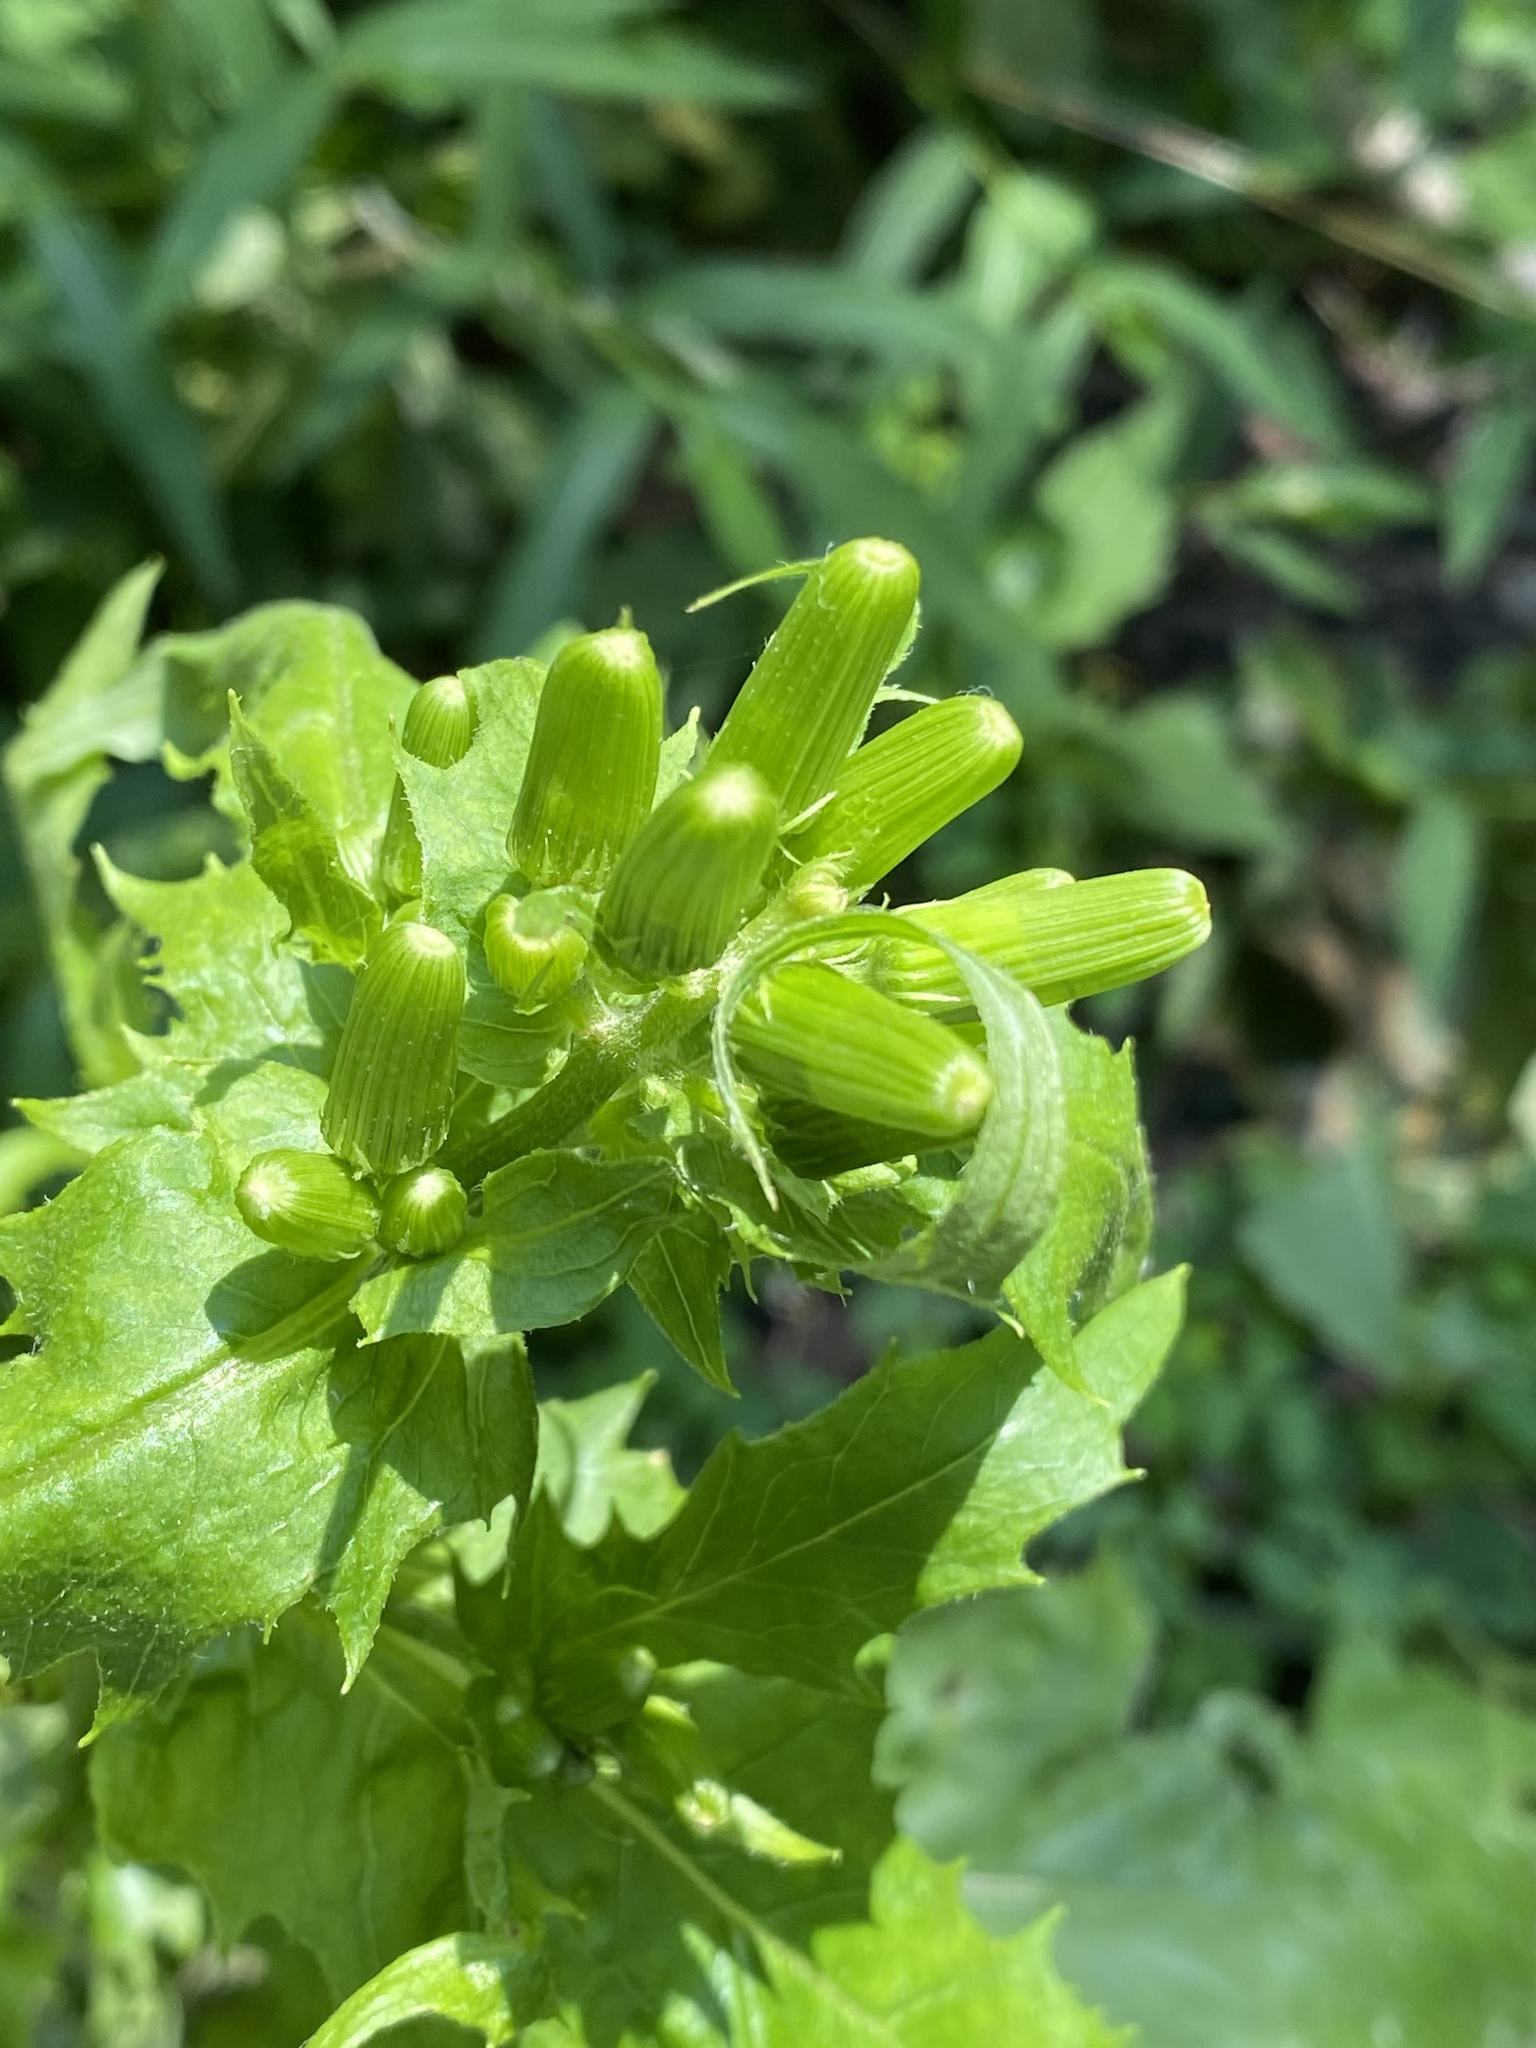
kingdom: Plantae
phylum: Tracheophyta
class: Magnoliopsida
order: Asterales
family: Asteraceae
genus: Erechtites
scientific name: Erechtites hieraciifolius
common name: American burnweed
